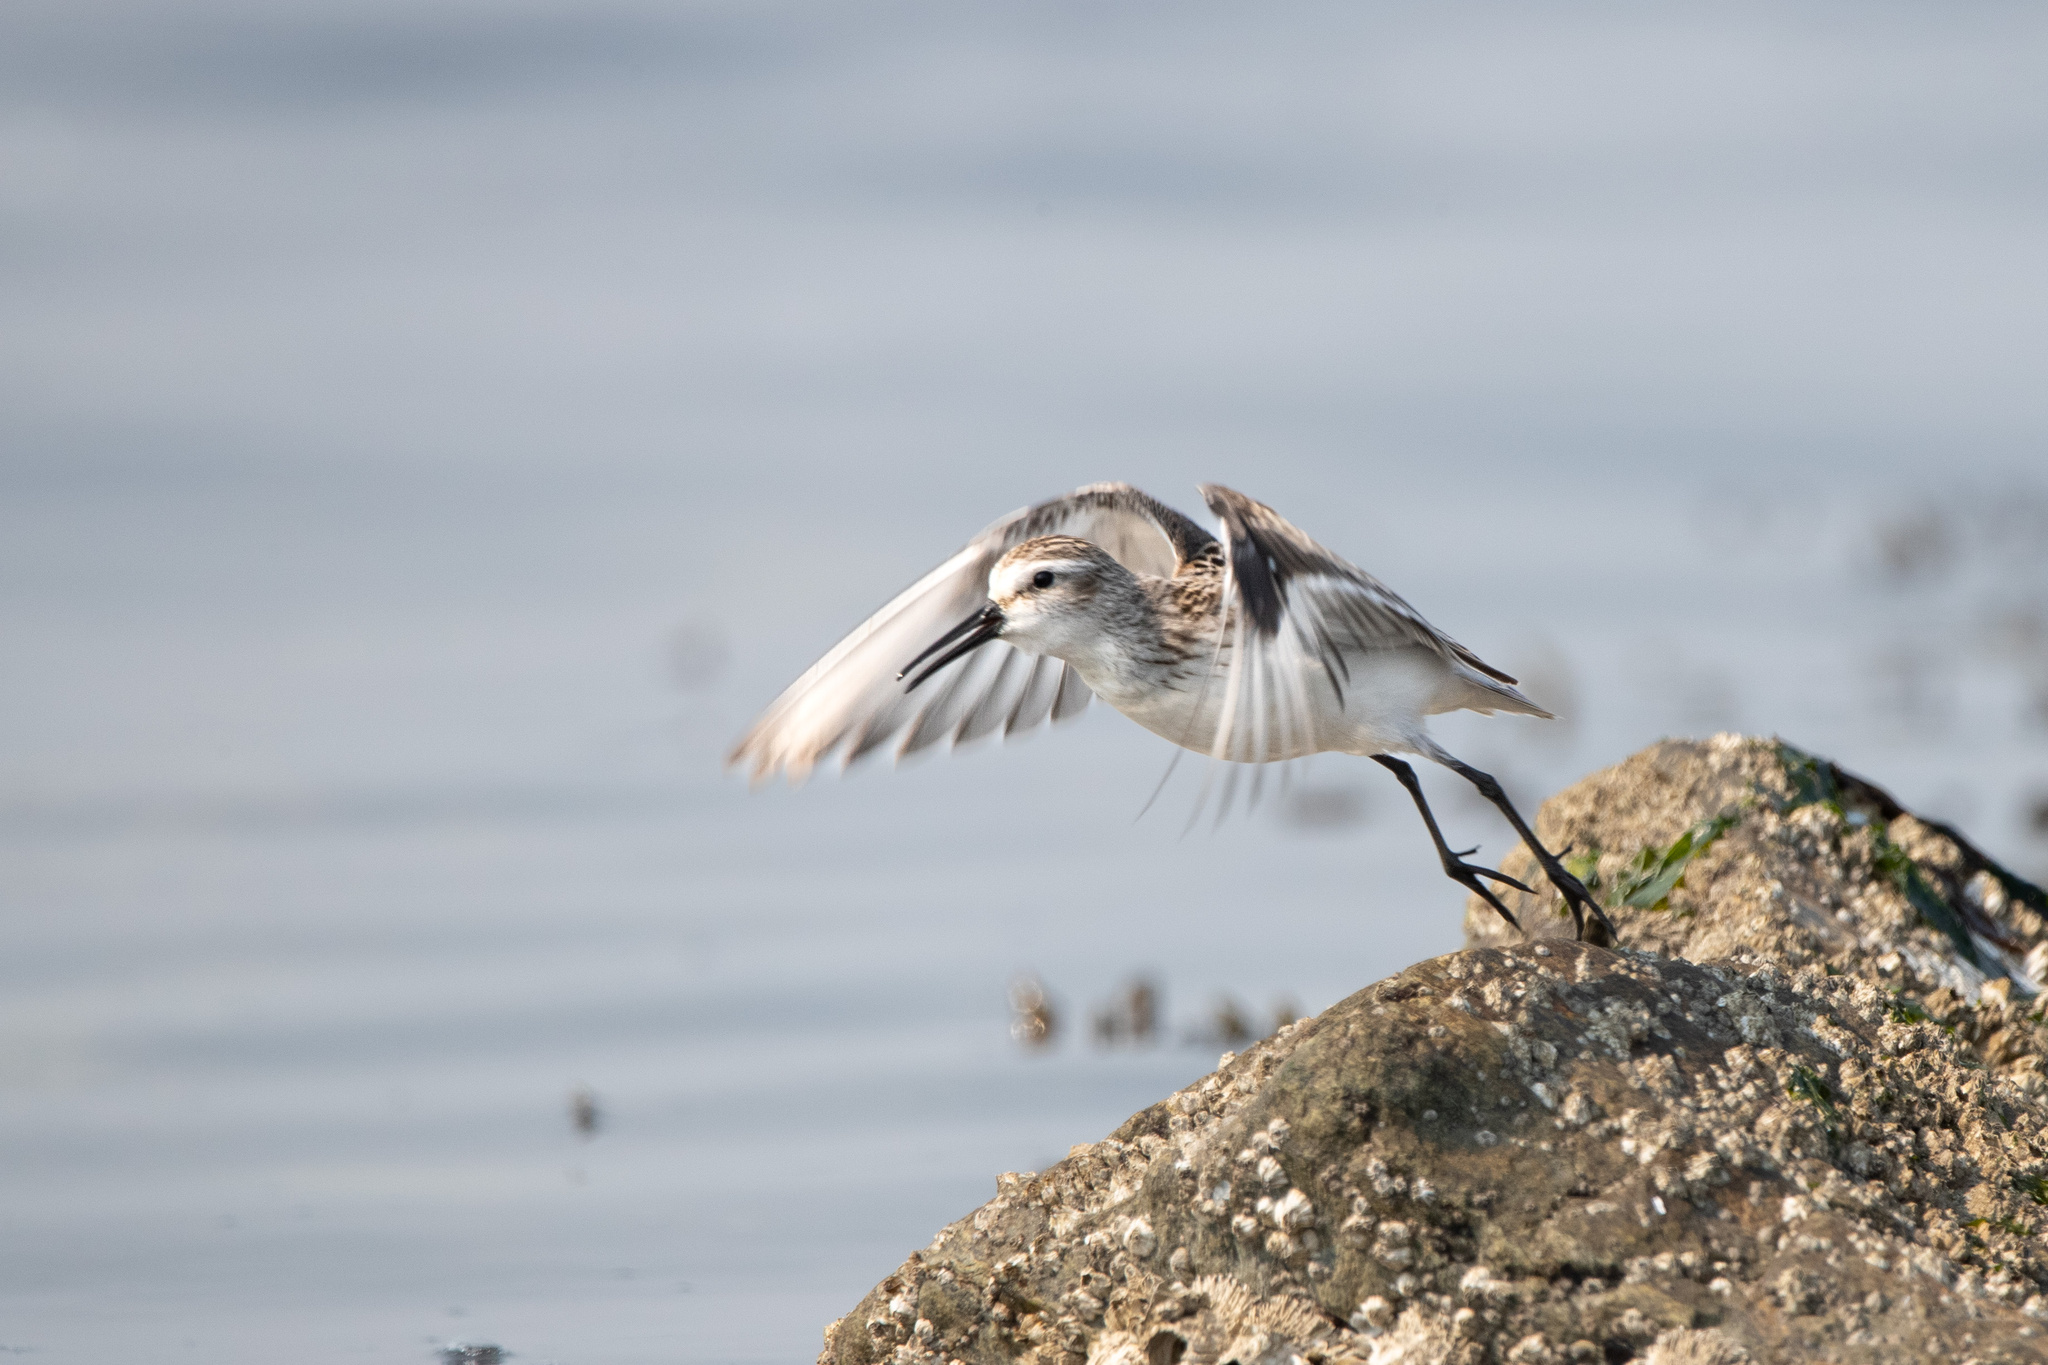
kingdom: Animalia
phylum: Chordata
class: Aves
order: Charadriiformes
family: Scolopacidae
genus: Calidris
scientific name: Calidris mauri
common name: Western sandpiper
